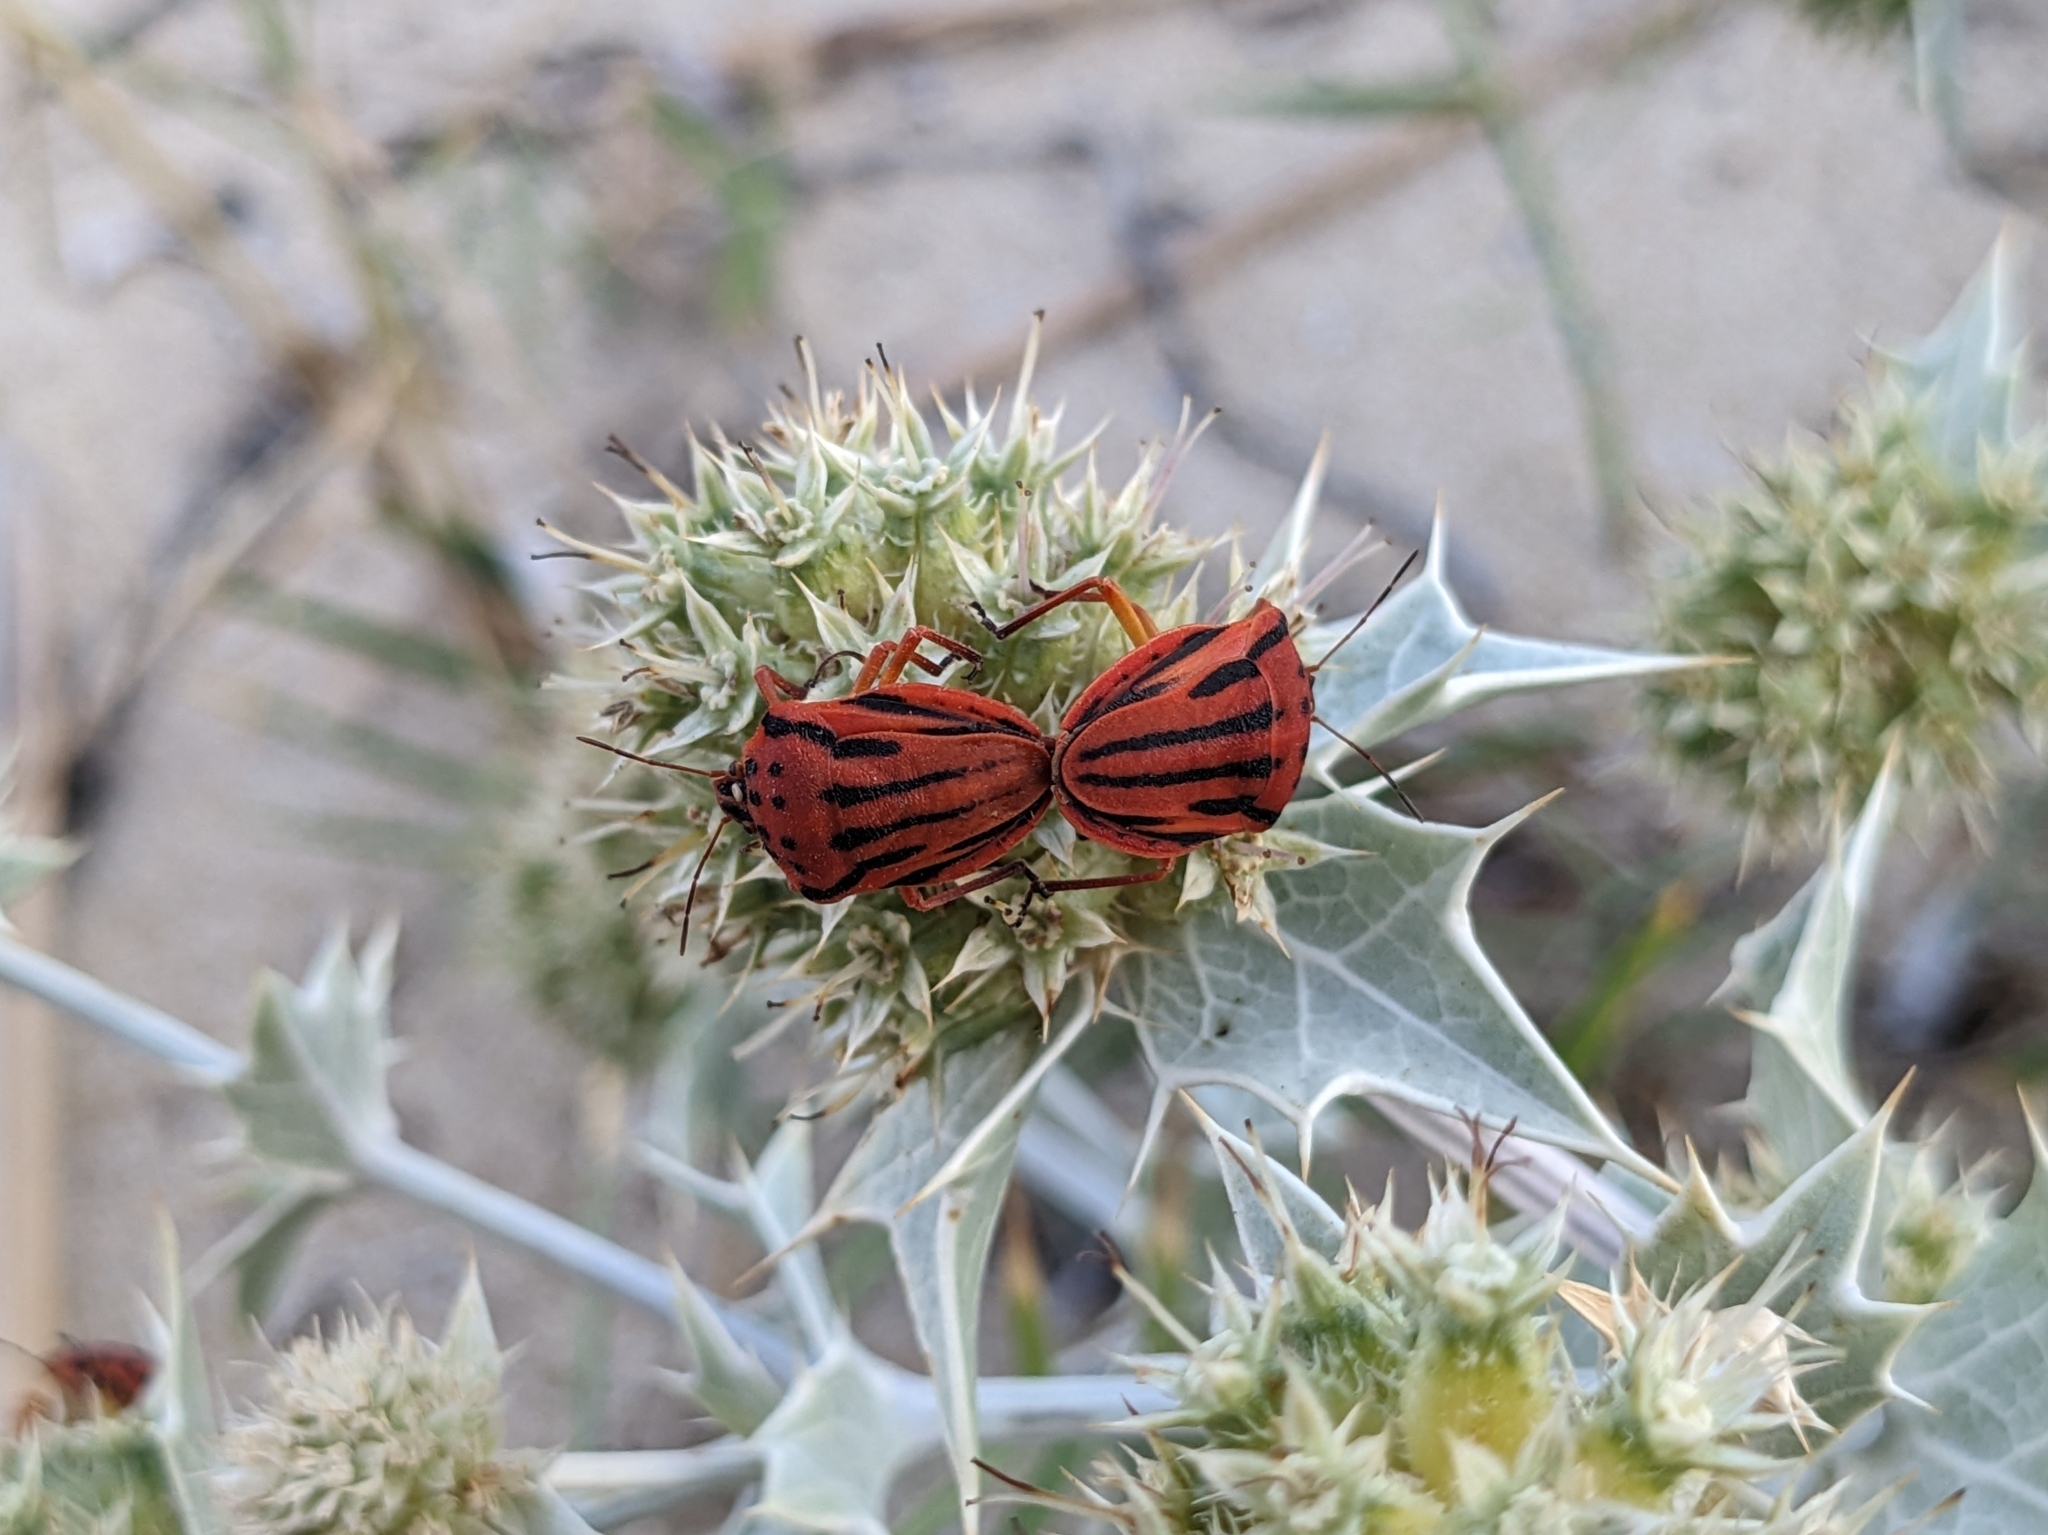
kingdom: Animalia
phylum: Arthropoda
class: Insecta
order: Hemiptera
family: Pentatomidae
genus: Graphosoma
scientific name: Graphosoma semipunctatum
